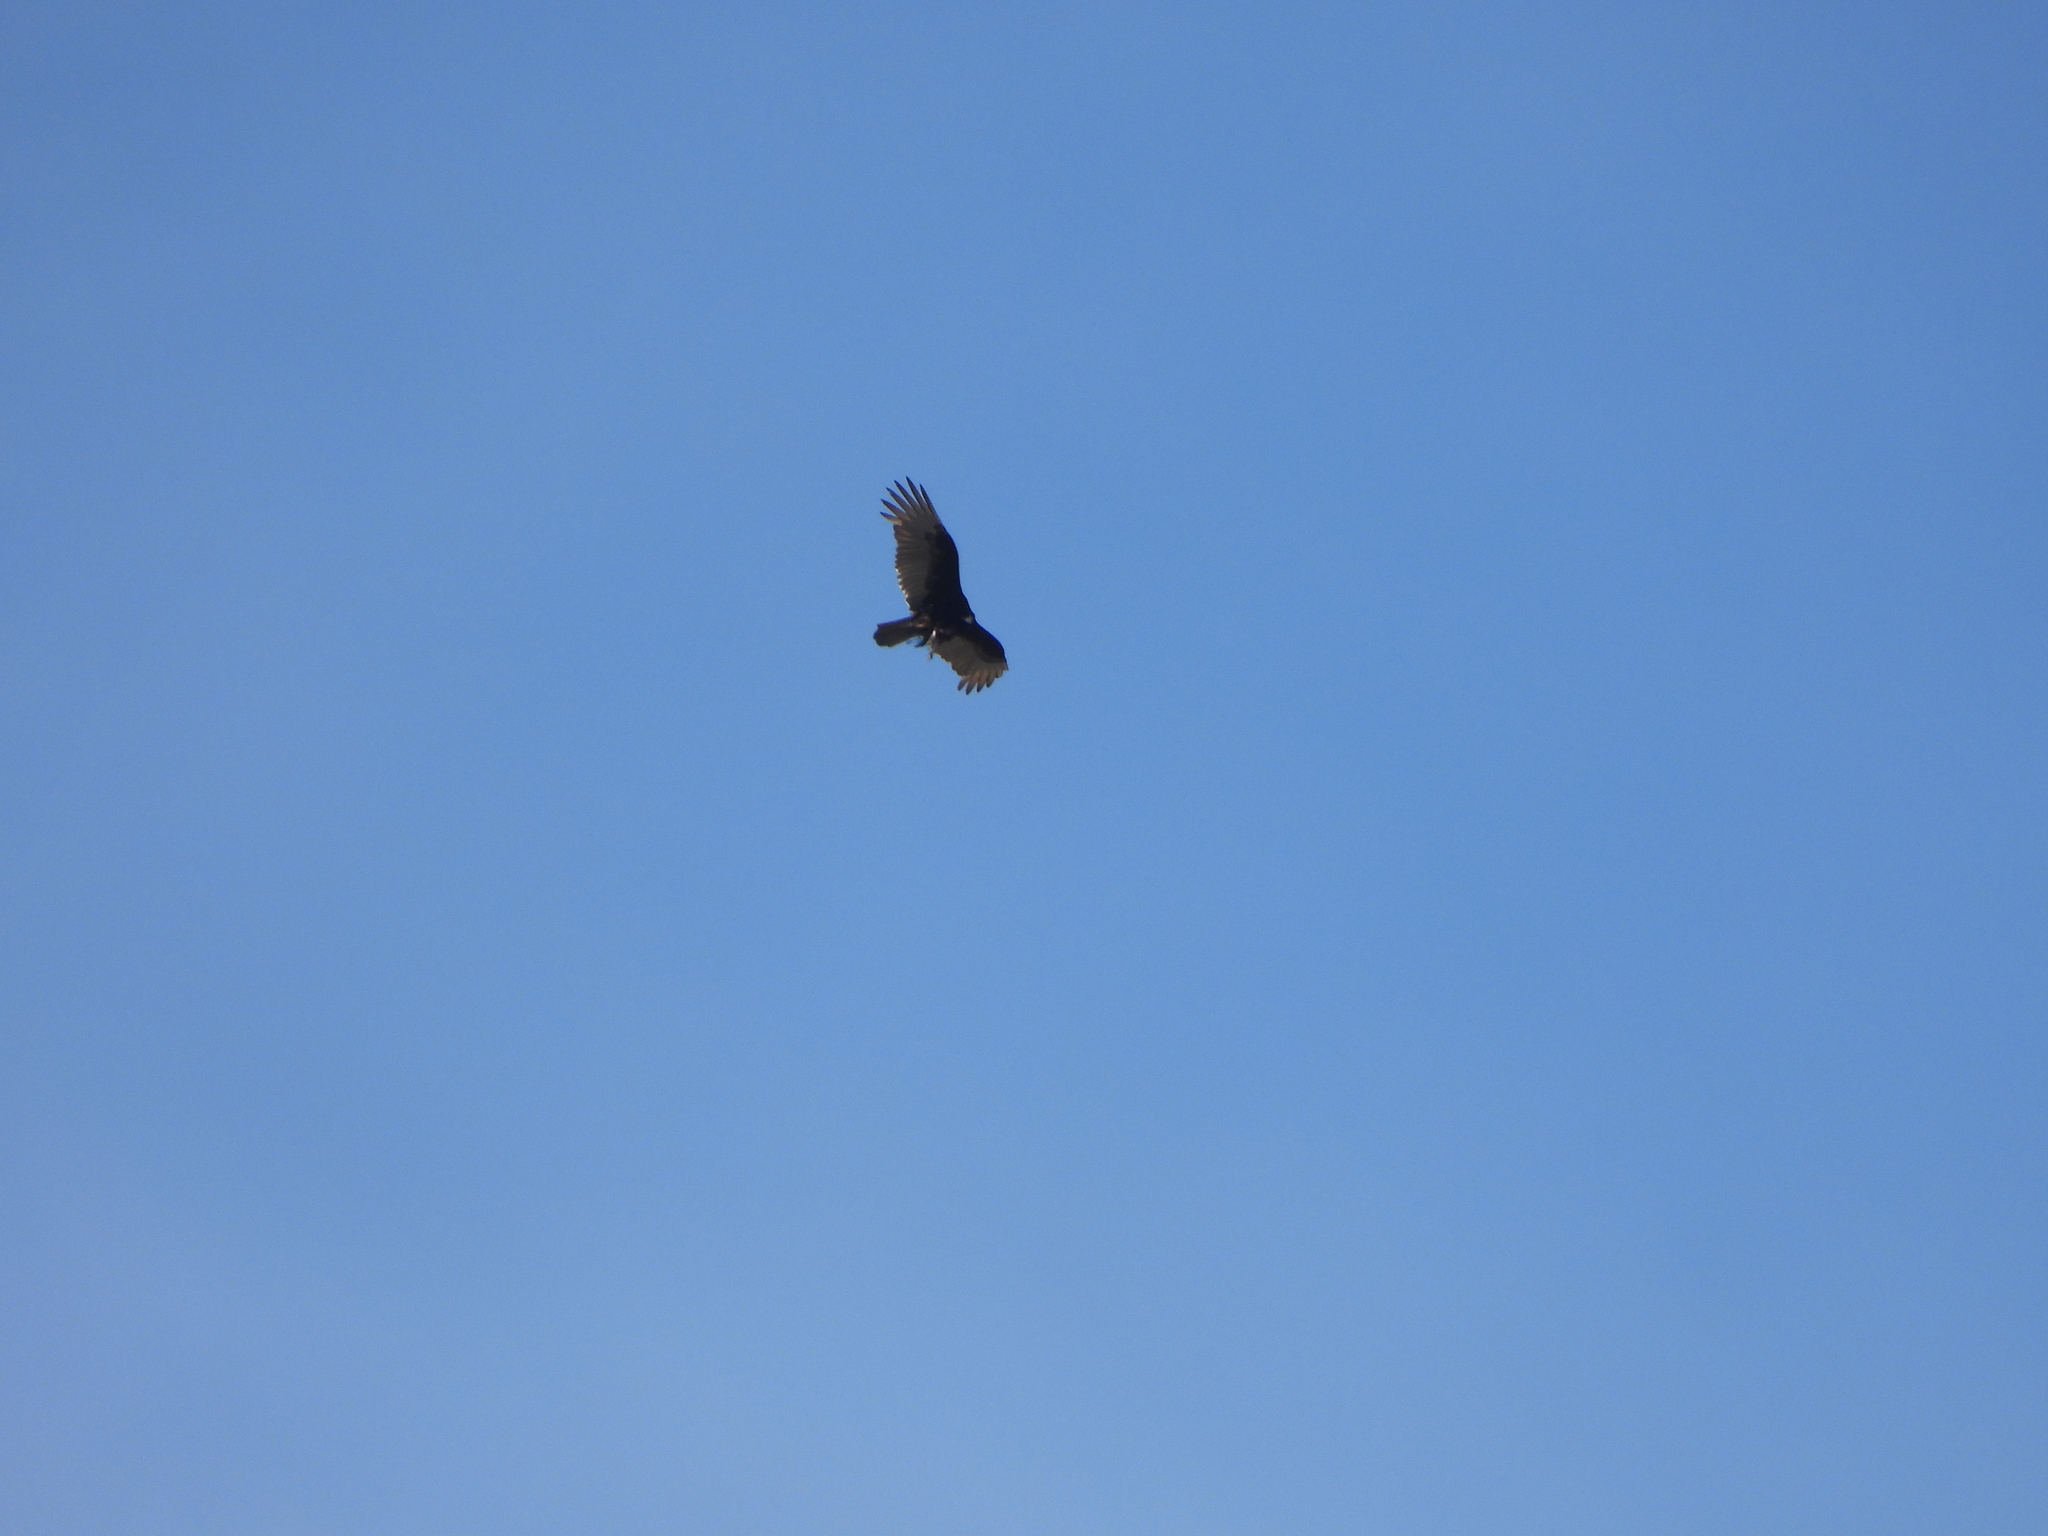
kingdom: Animalia
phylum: Chordata
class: Aves
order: Accipitriformes
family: Cathartidae
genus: Cathartes
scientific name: Cathartes aura
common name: Turkey vulture
